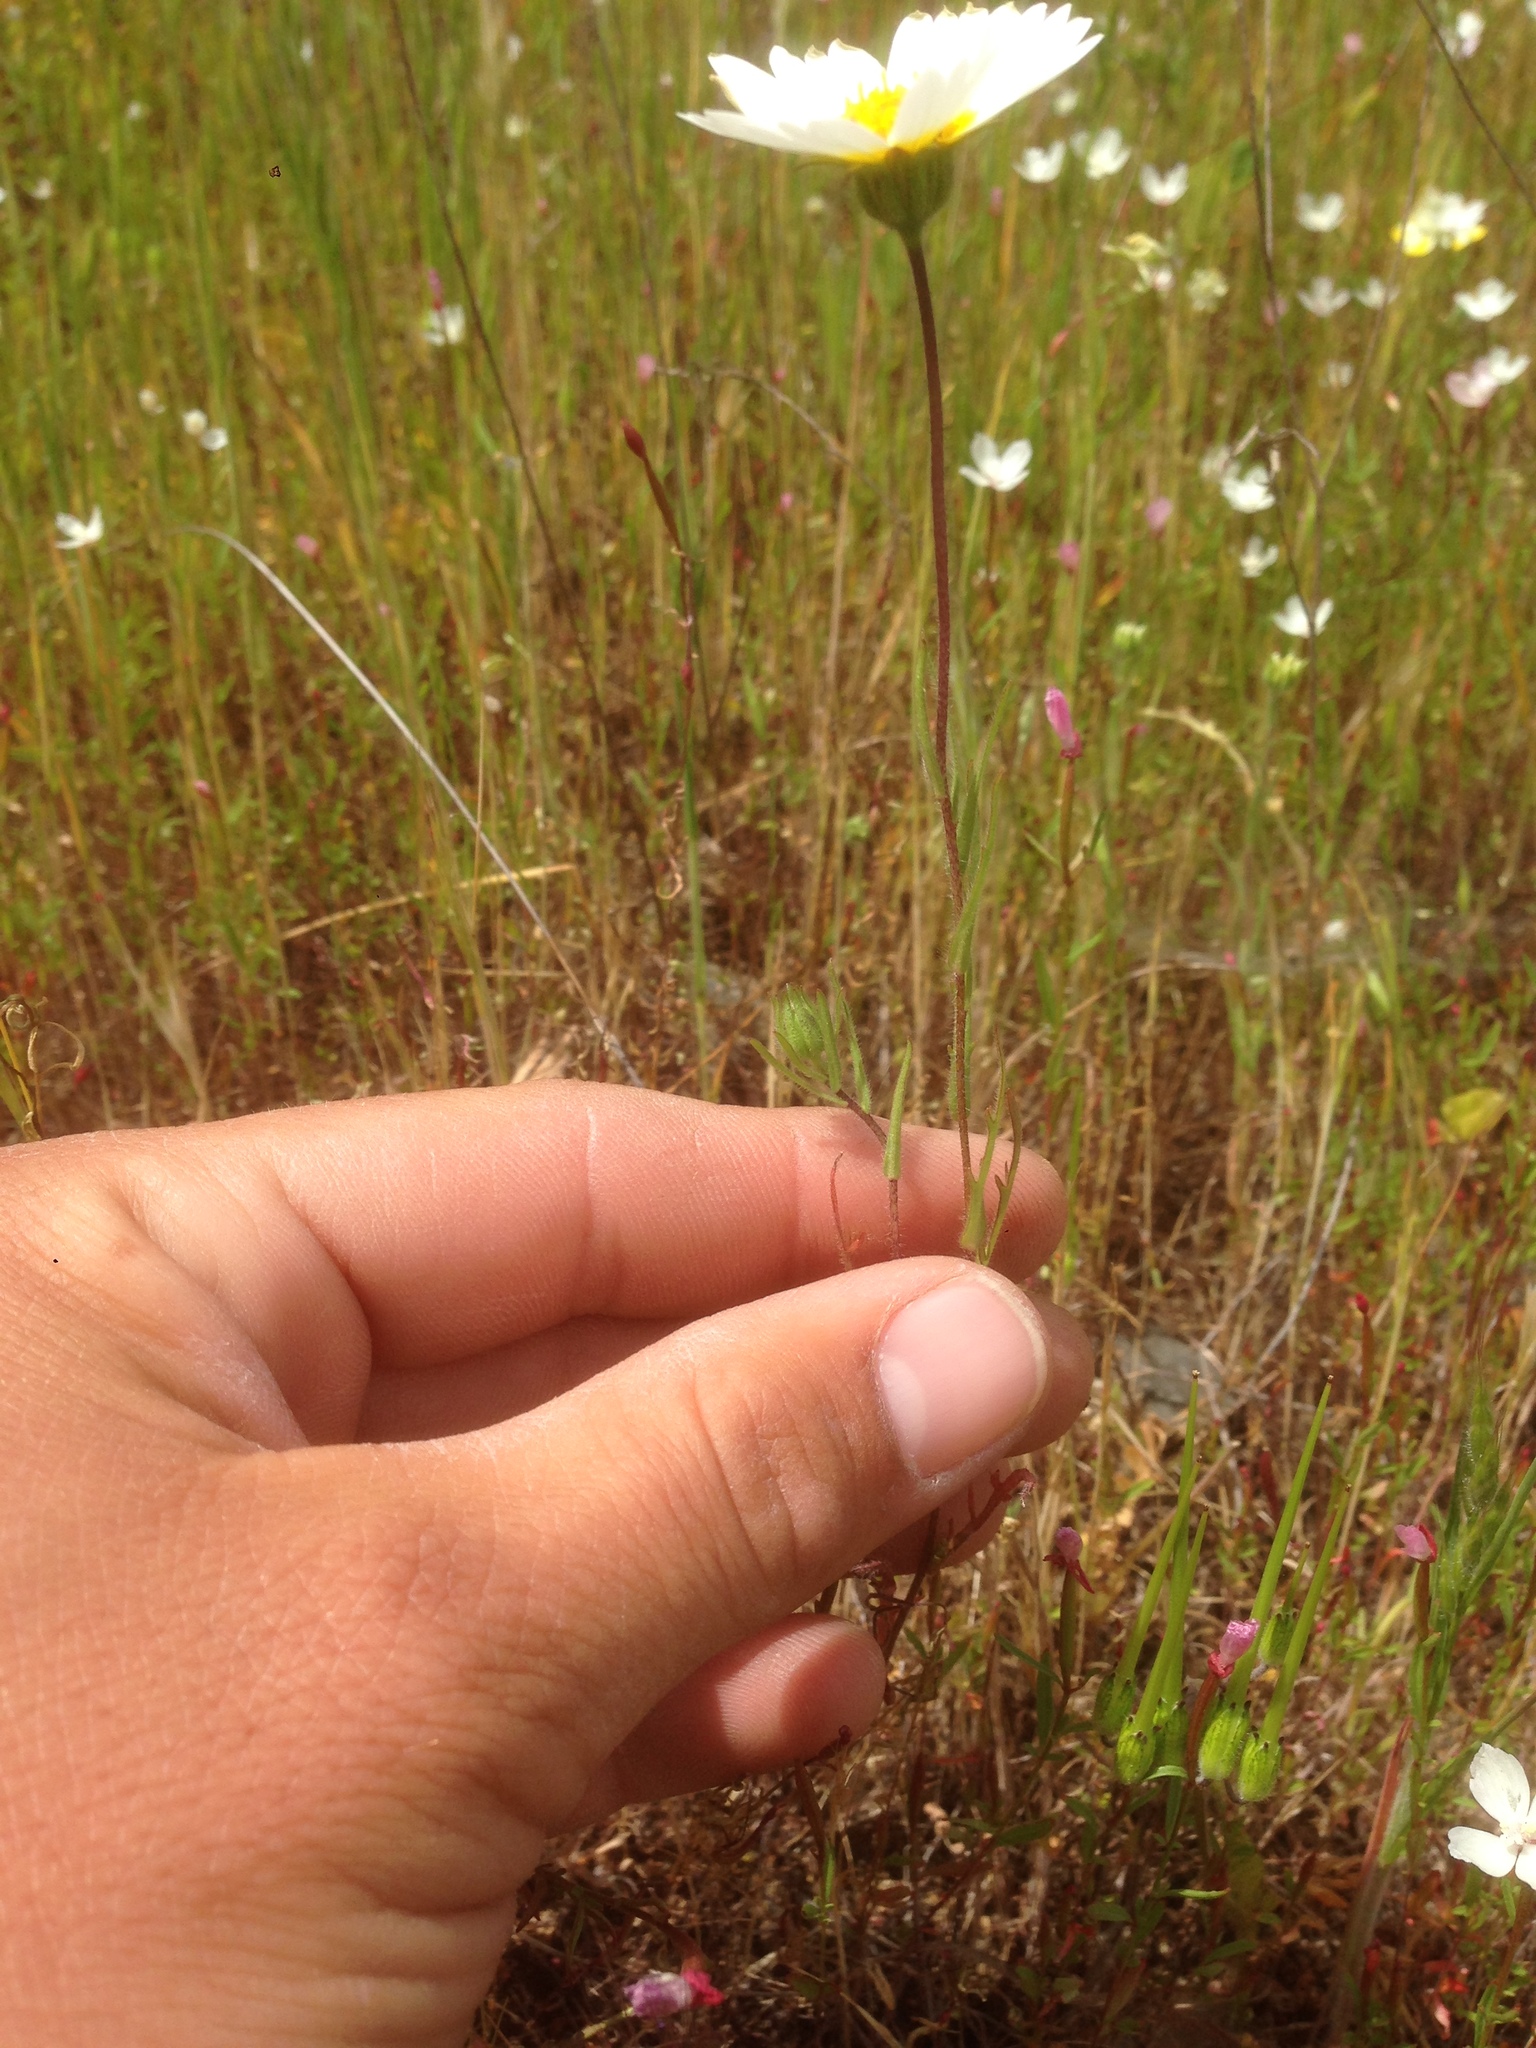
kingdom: Plantae
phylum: Tracheophyta
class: Magnoliopsida
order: Asterales
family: Asteraceae
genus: Layia
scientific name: Layia platyglossa
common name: Tidy-tips
